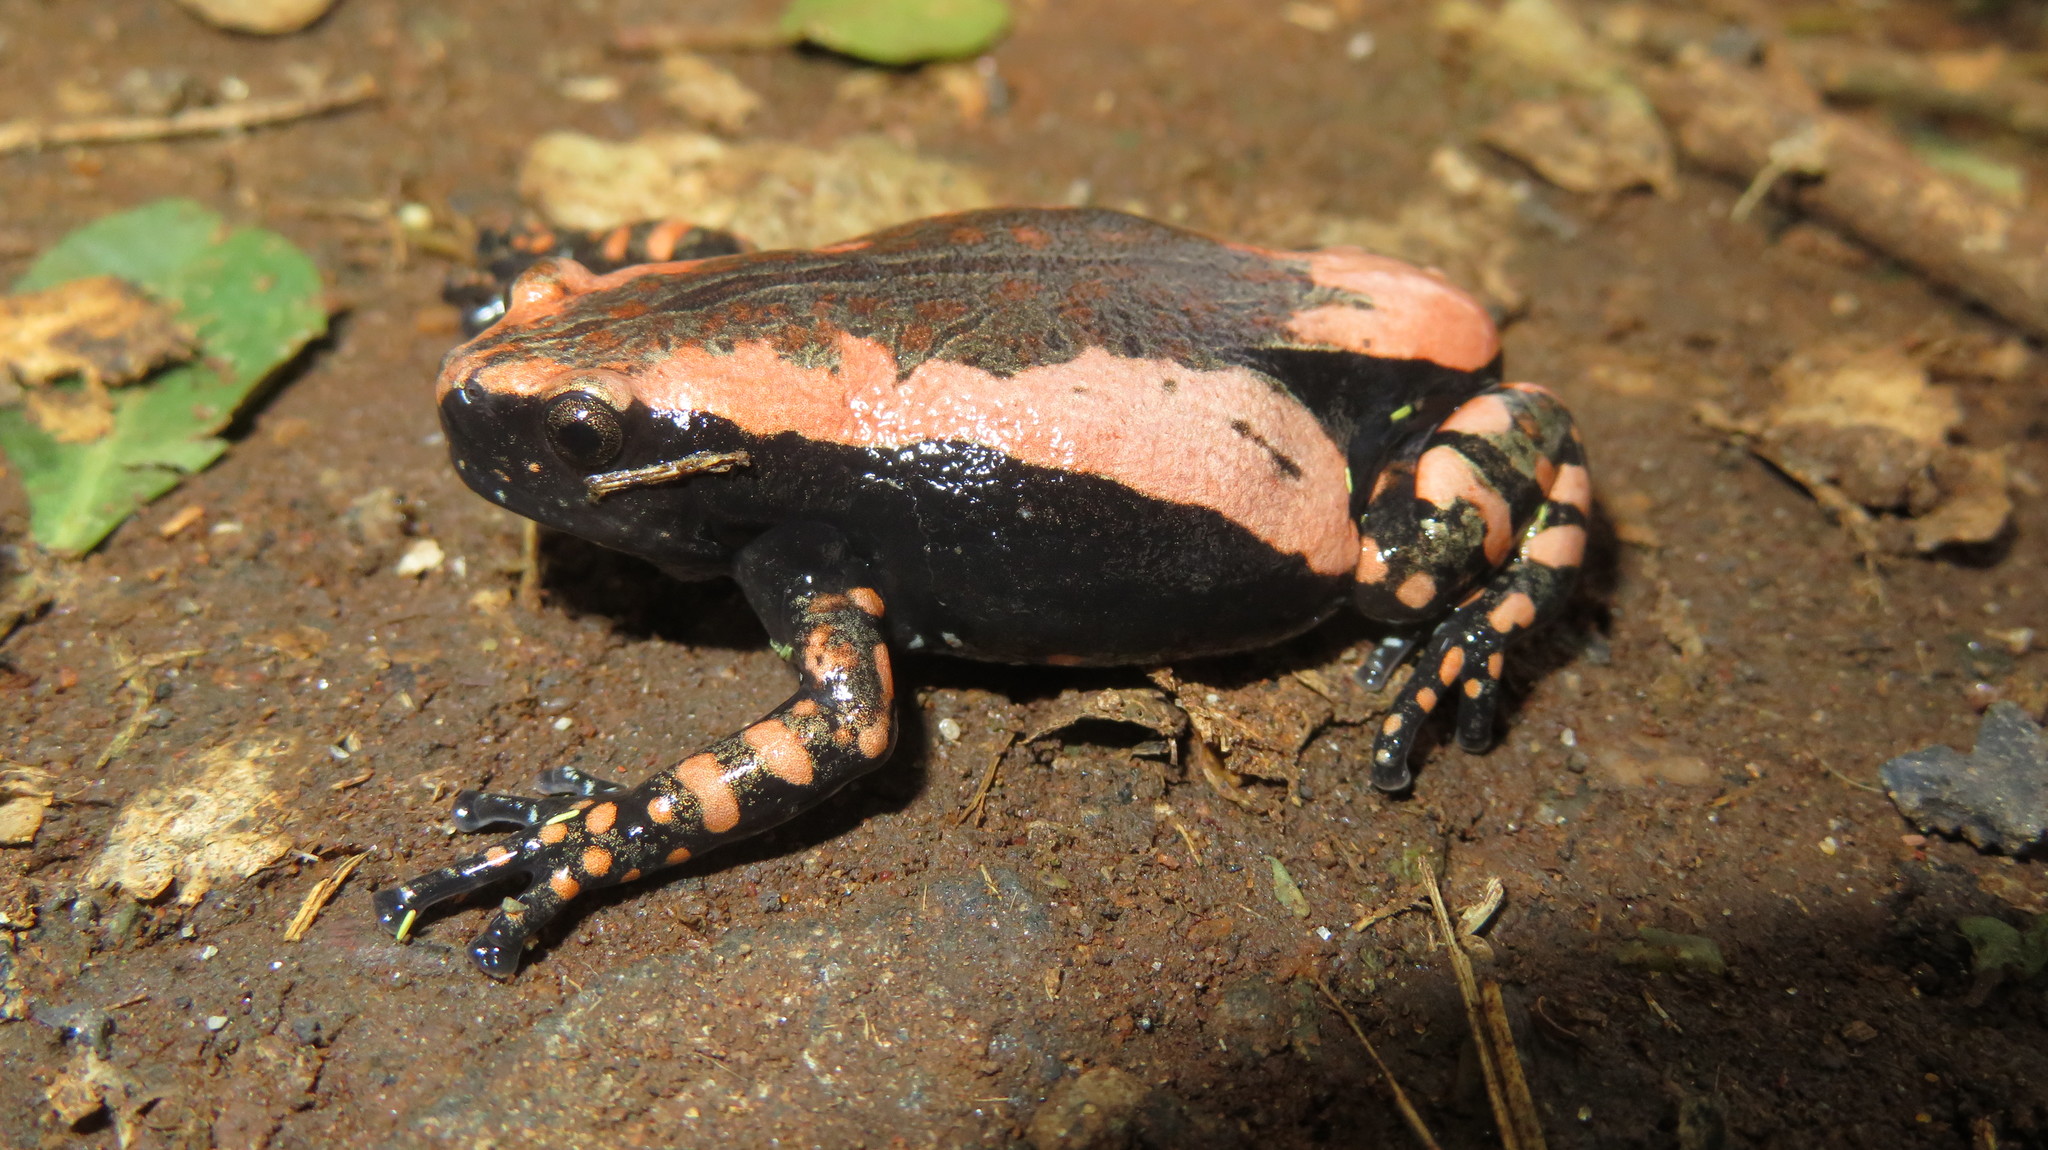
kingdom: Animalia
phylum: Chordata
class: Amphibia
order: Anura
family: Microhylidae
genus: Phrynomantis
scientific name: Phrynomantis bifasciatus
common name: Banded rubber frog
